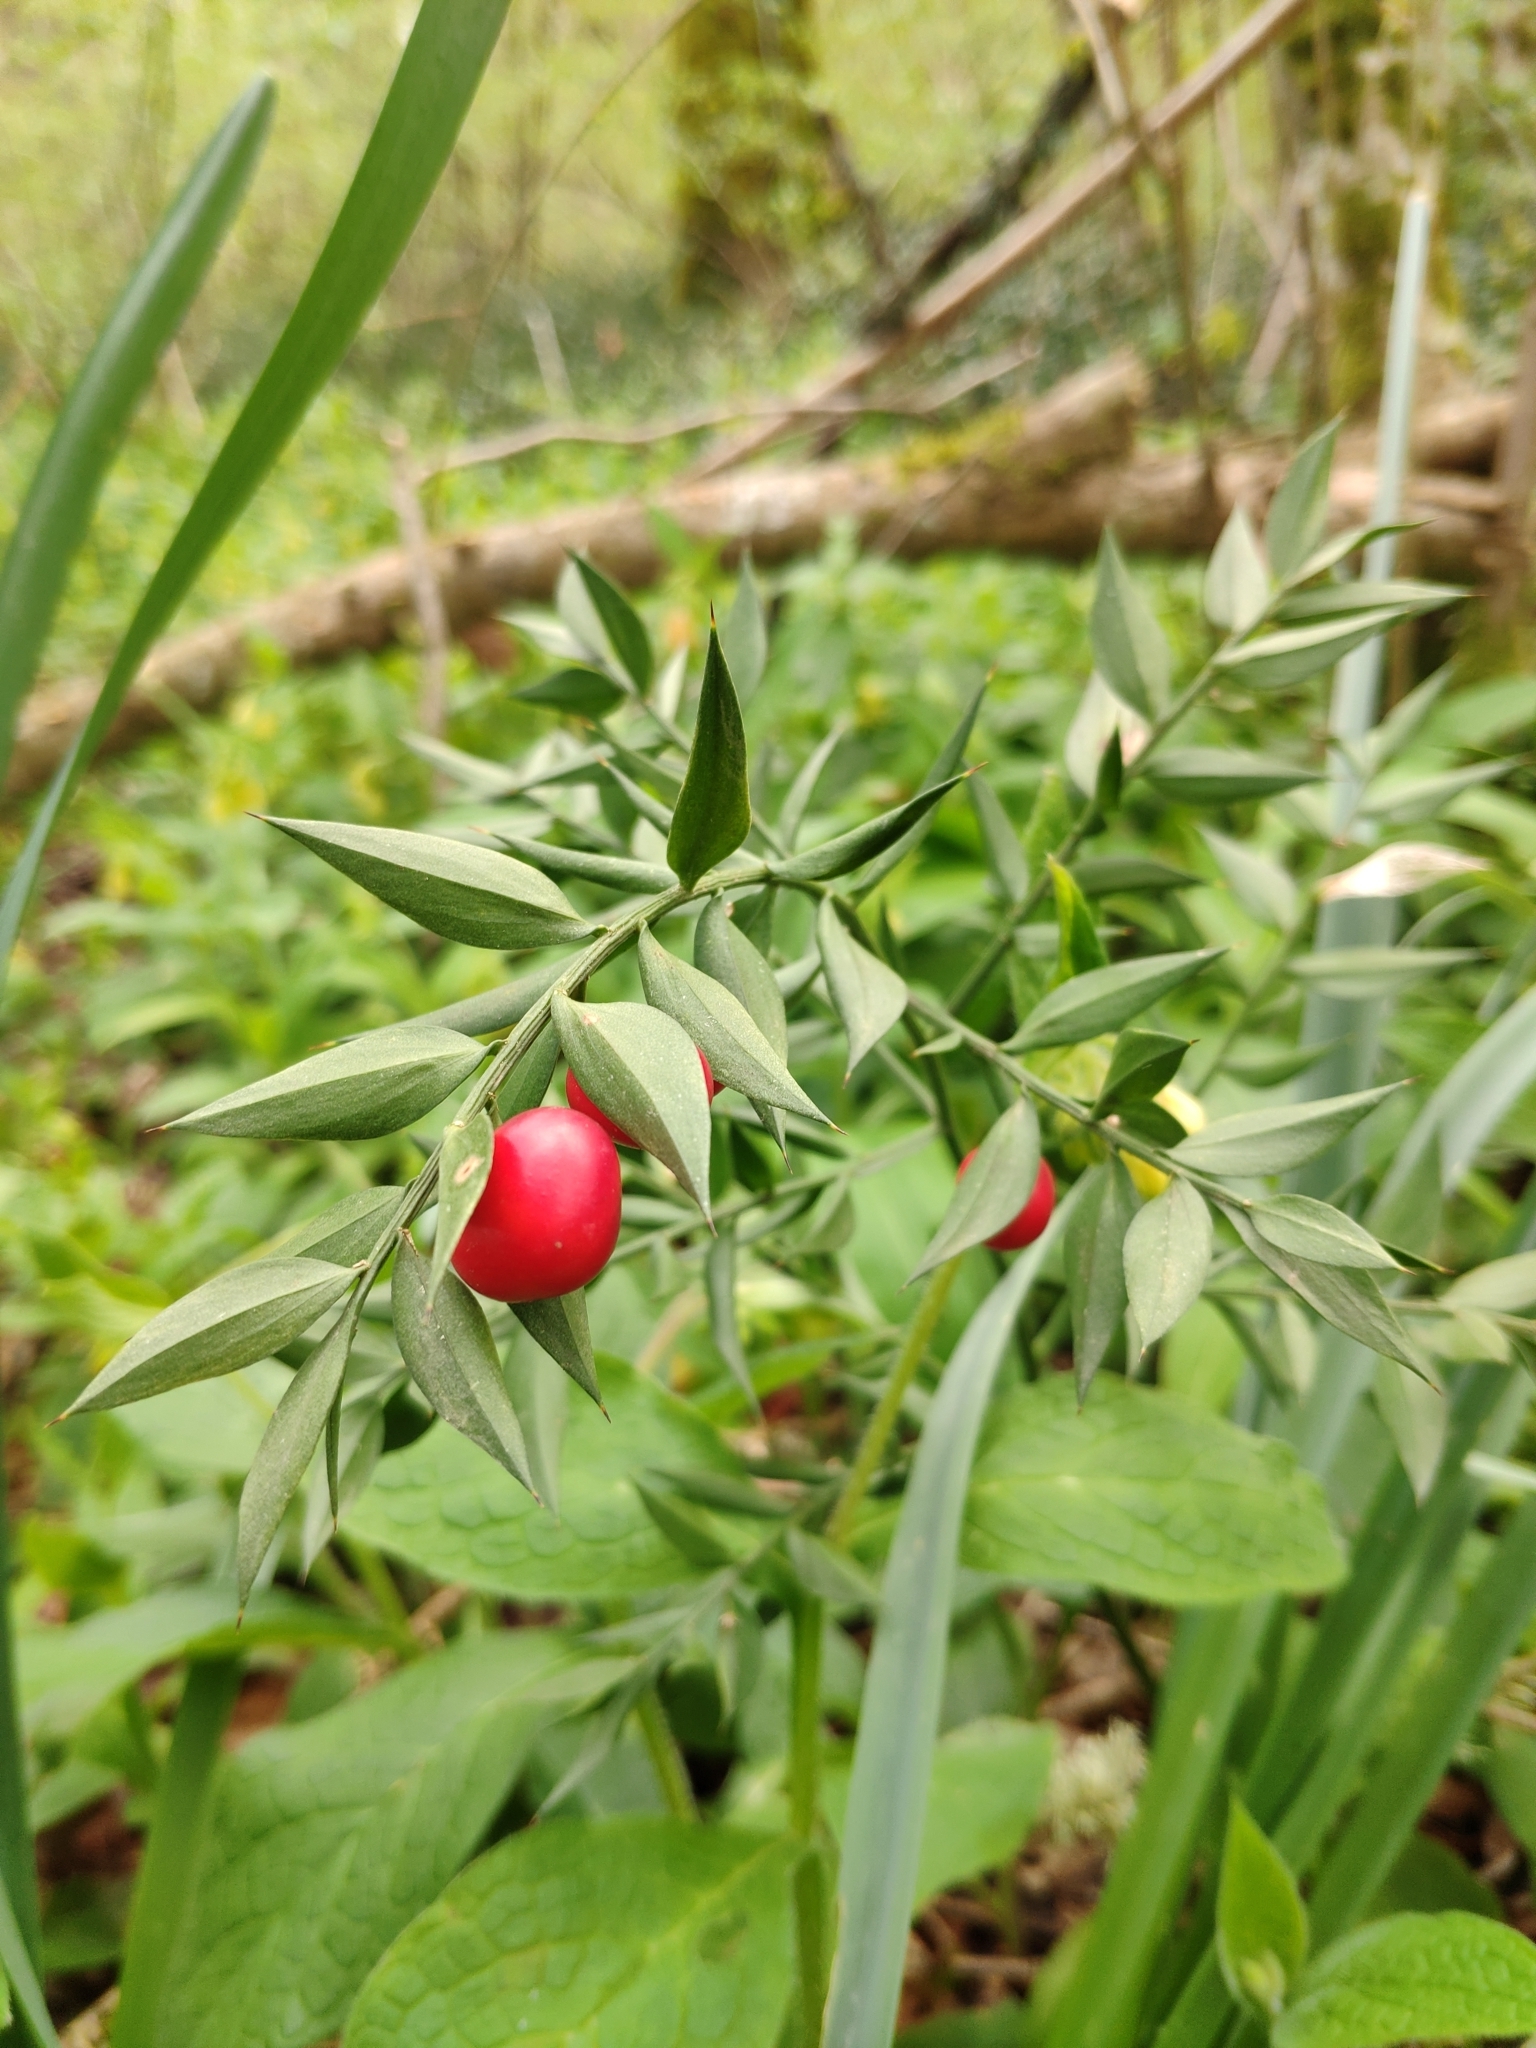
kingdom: Plantae
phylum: Tracheophyta
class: Liliopsida
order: Asparagales
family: Asparagaceae
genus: Ruscus
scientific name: Ruscus aculeatus
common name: Butcher's-broom
